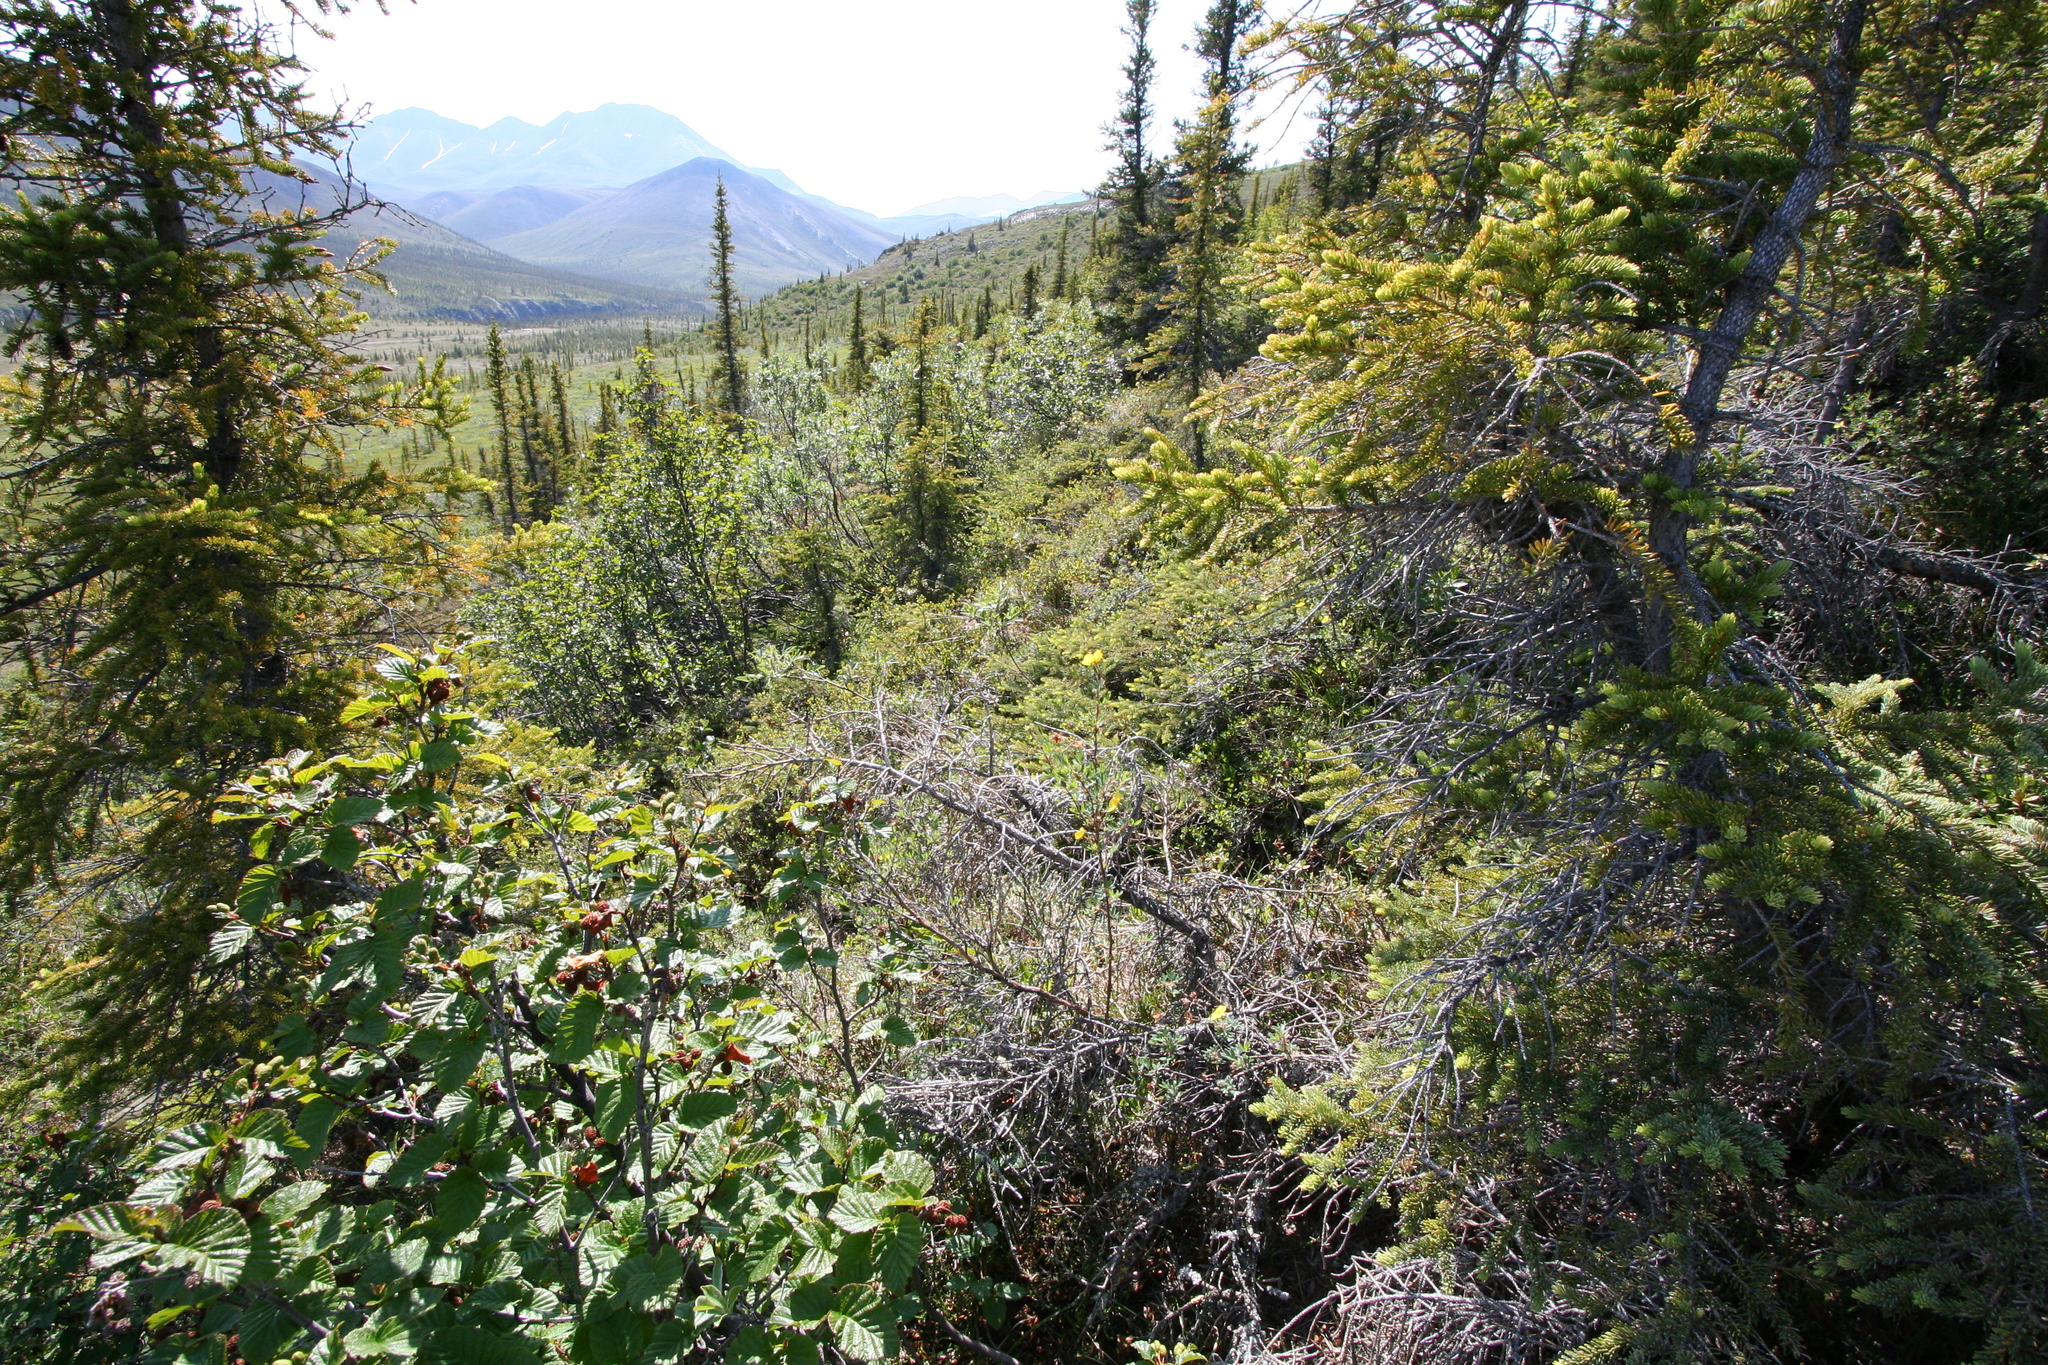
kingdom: Plantae
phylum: Tracheophyta
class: Magnoliopsida
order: Fagales
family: Betulaceae
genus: Alnus
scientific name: Alnus alnobetula
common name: Green alder
